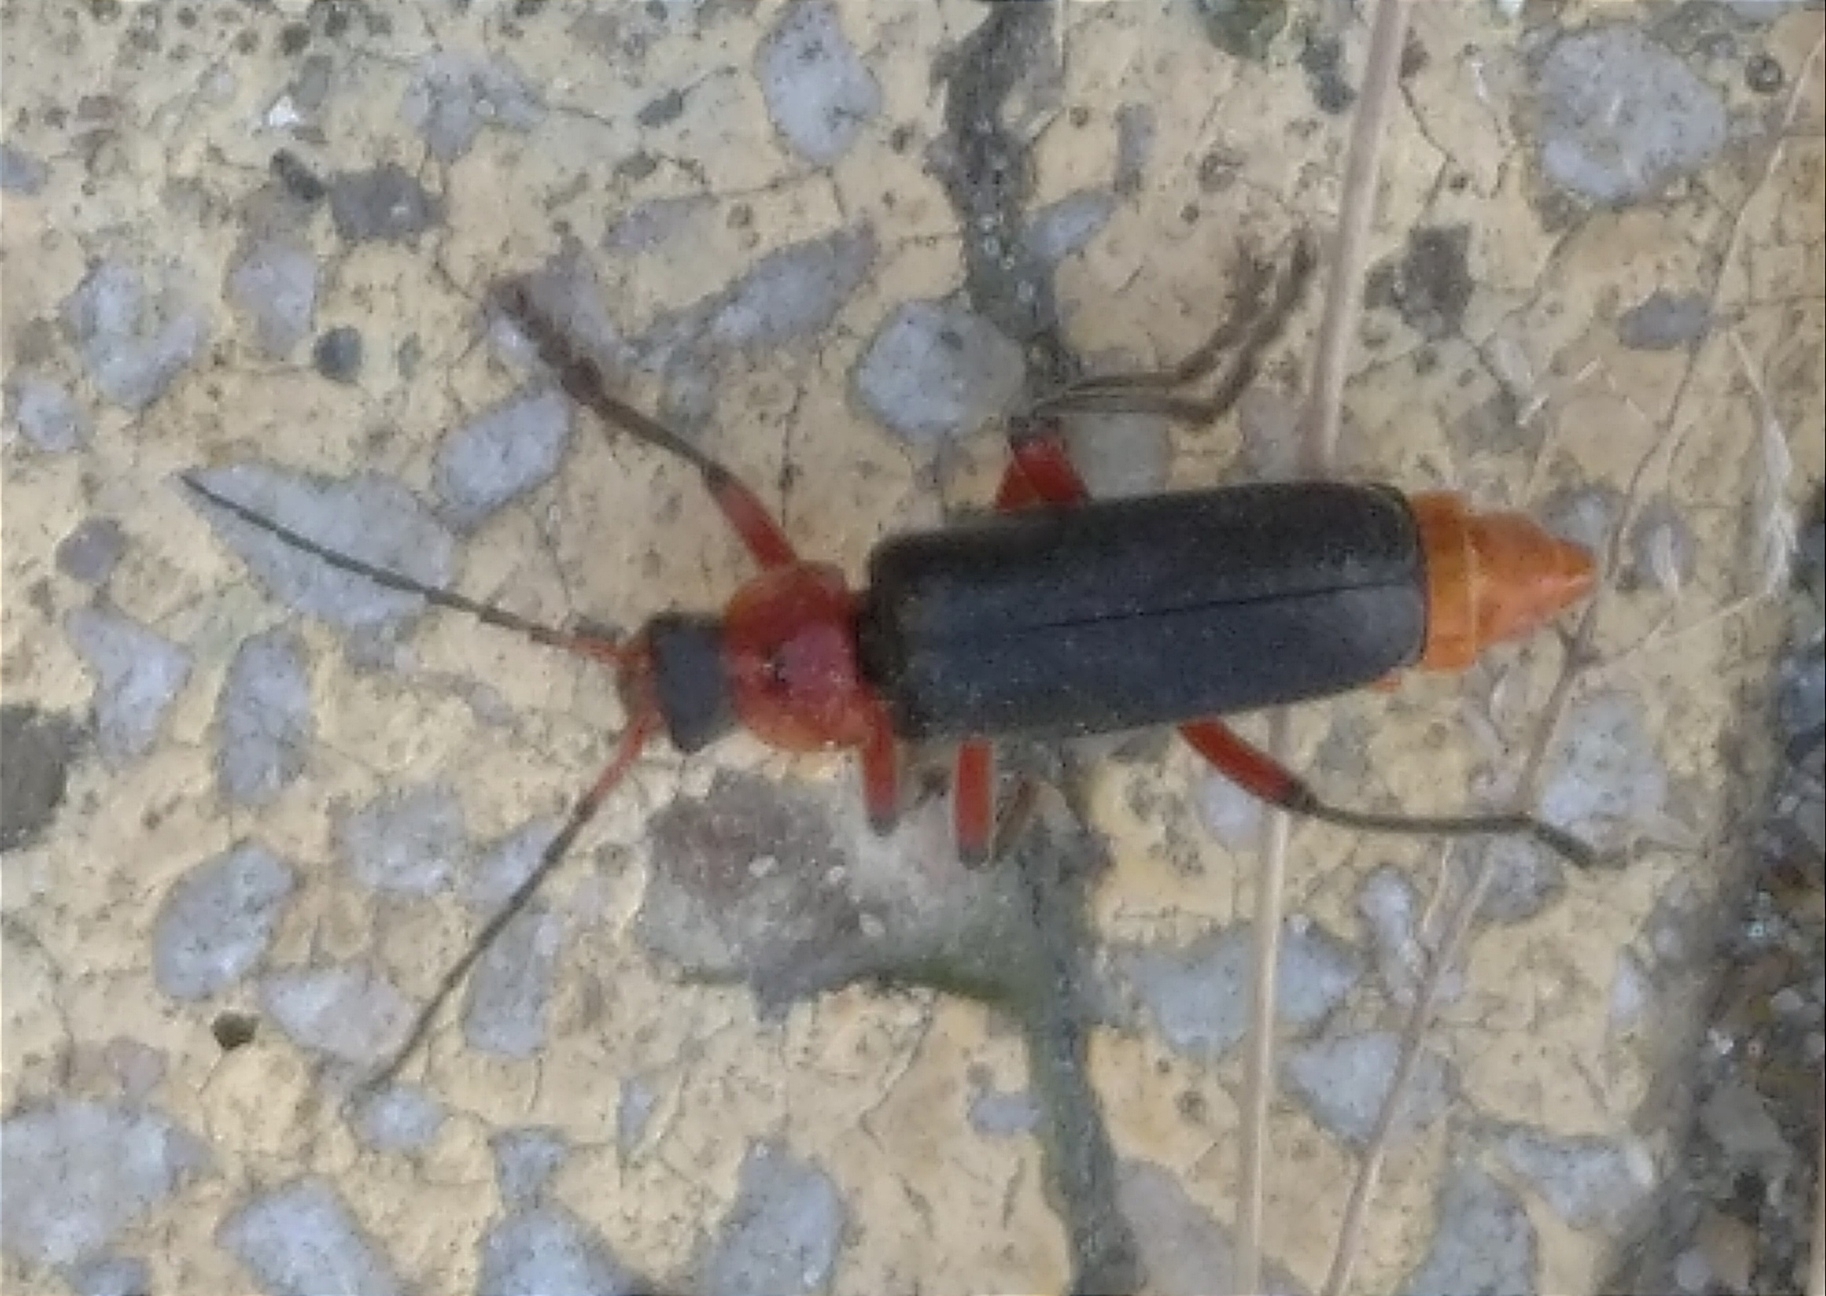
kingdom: Animalia
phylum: Arthropoda
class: Insecta
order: Coleoptera
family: Cantharidae
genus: Cantharis
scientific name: Cantharis rustica
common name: Soldier beetle
